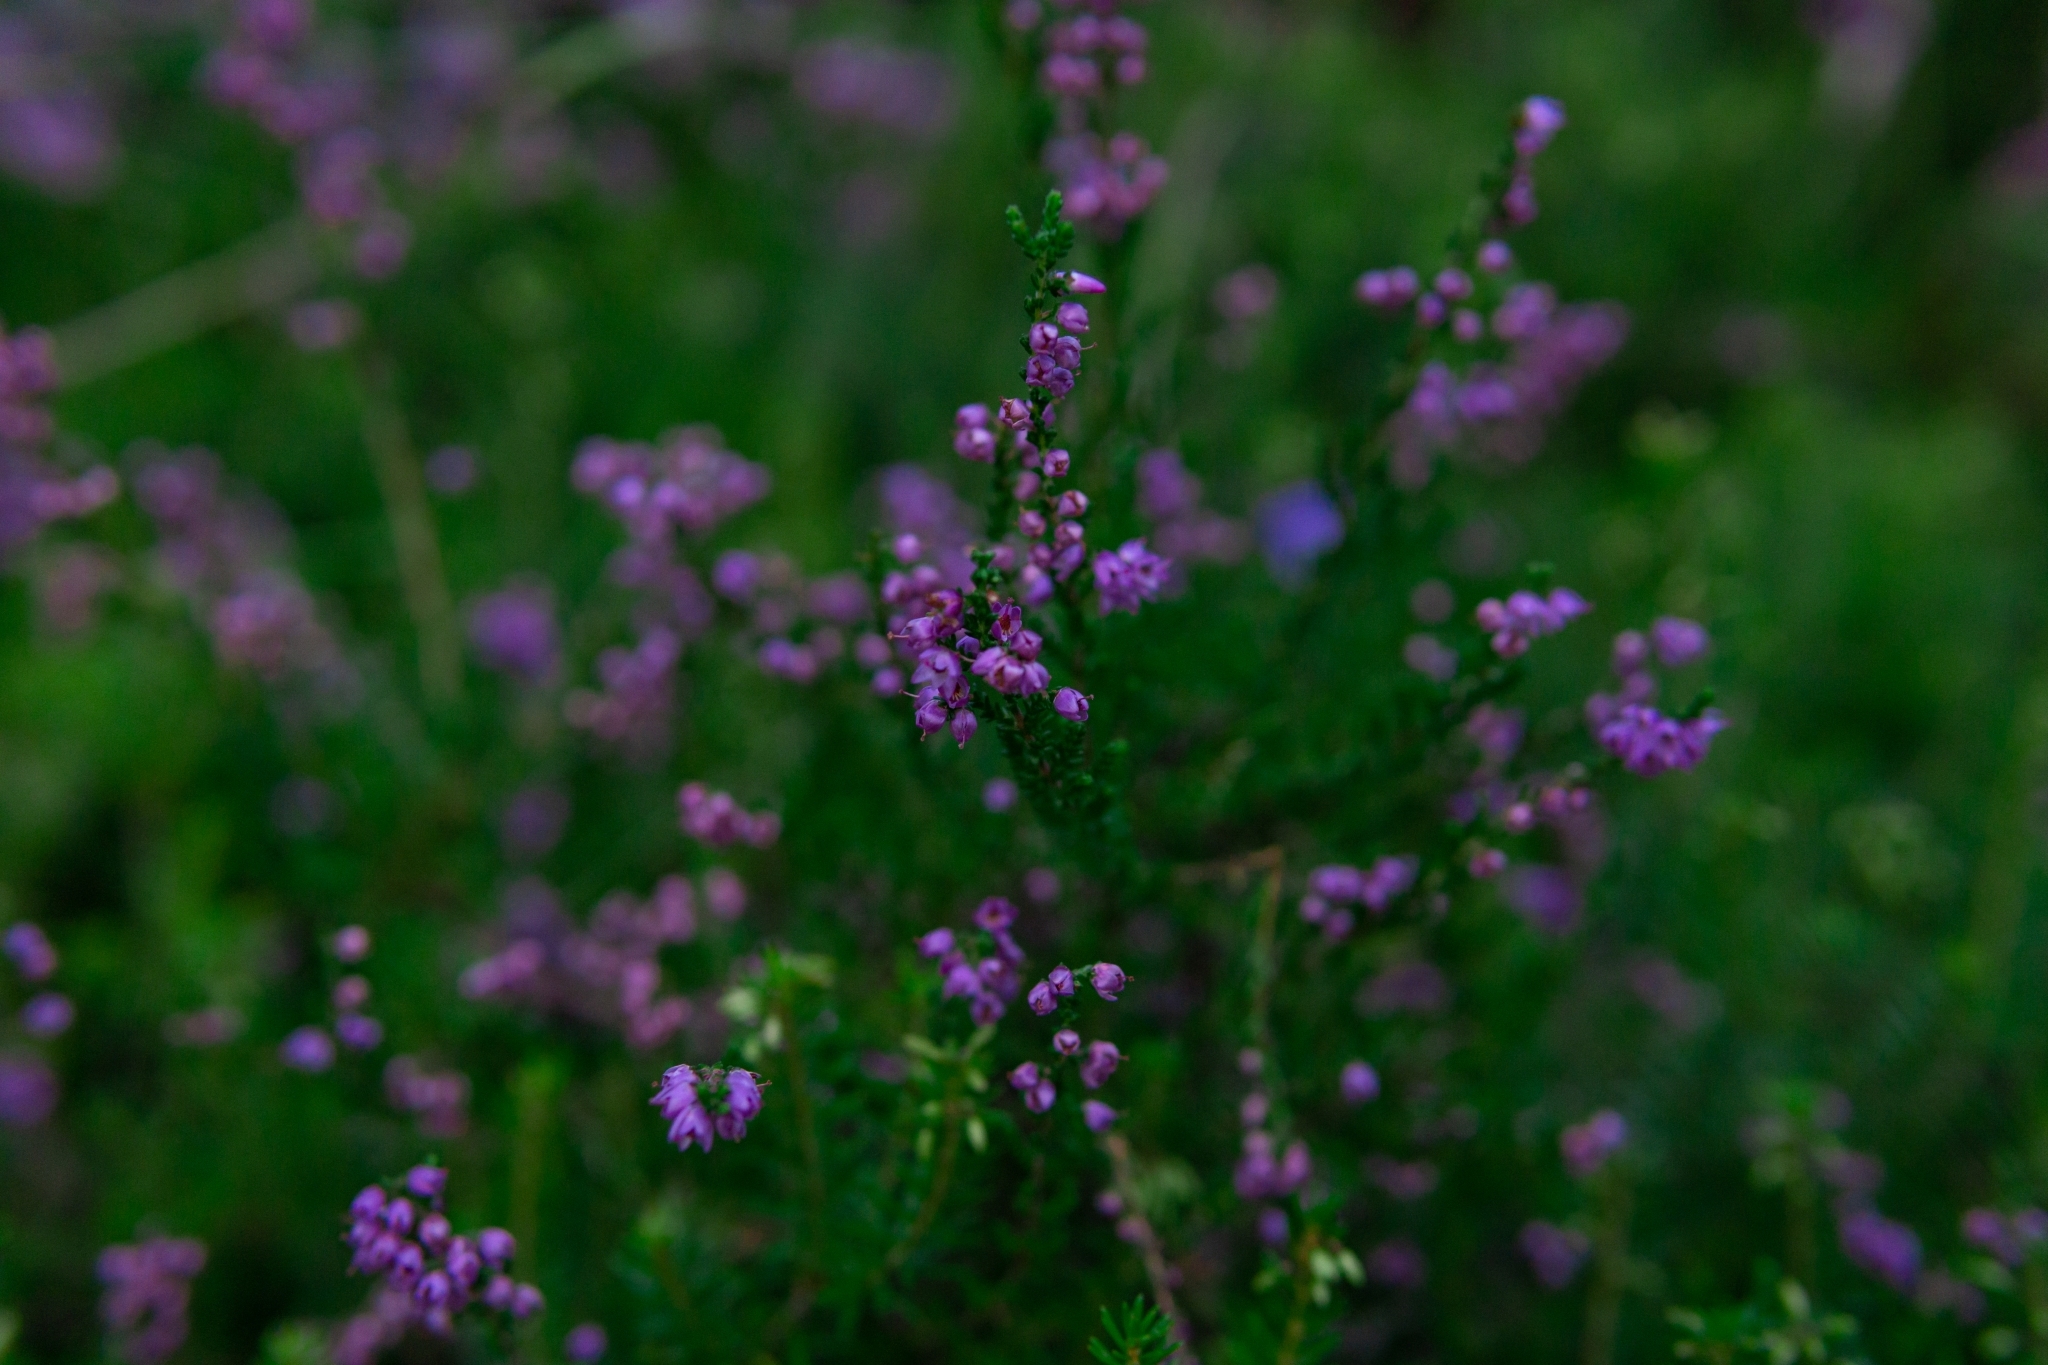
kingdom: Plantae
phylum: Tracheophyta
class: Magnoliopsida
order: Ericales
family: Ericaceae
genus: Calluna
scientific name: Calluna vulgaris
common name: Heather
